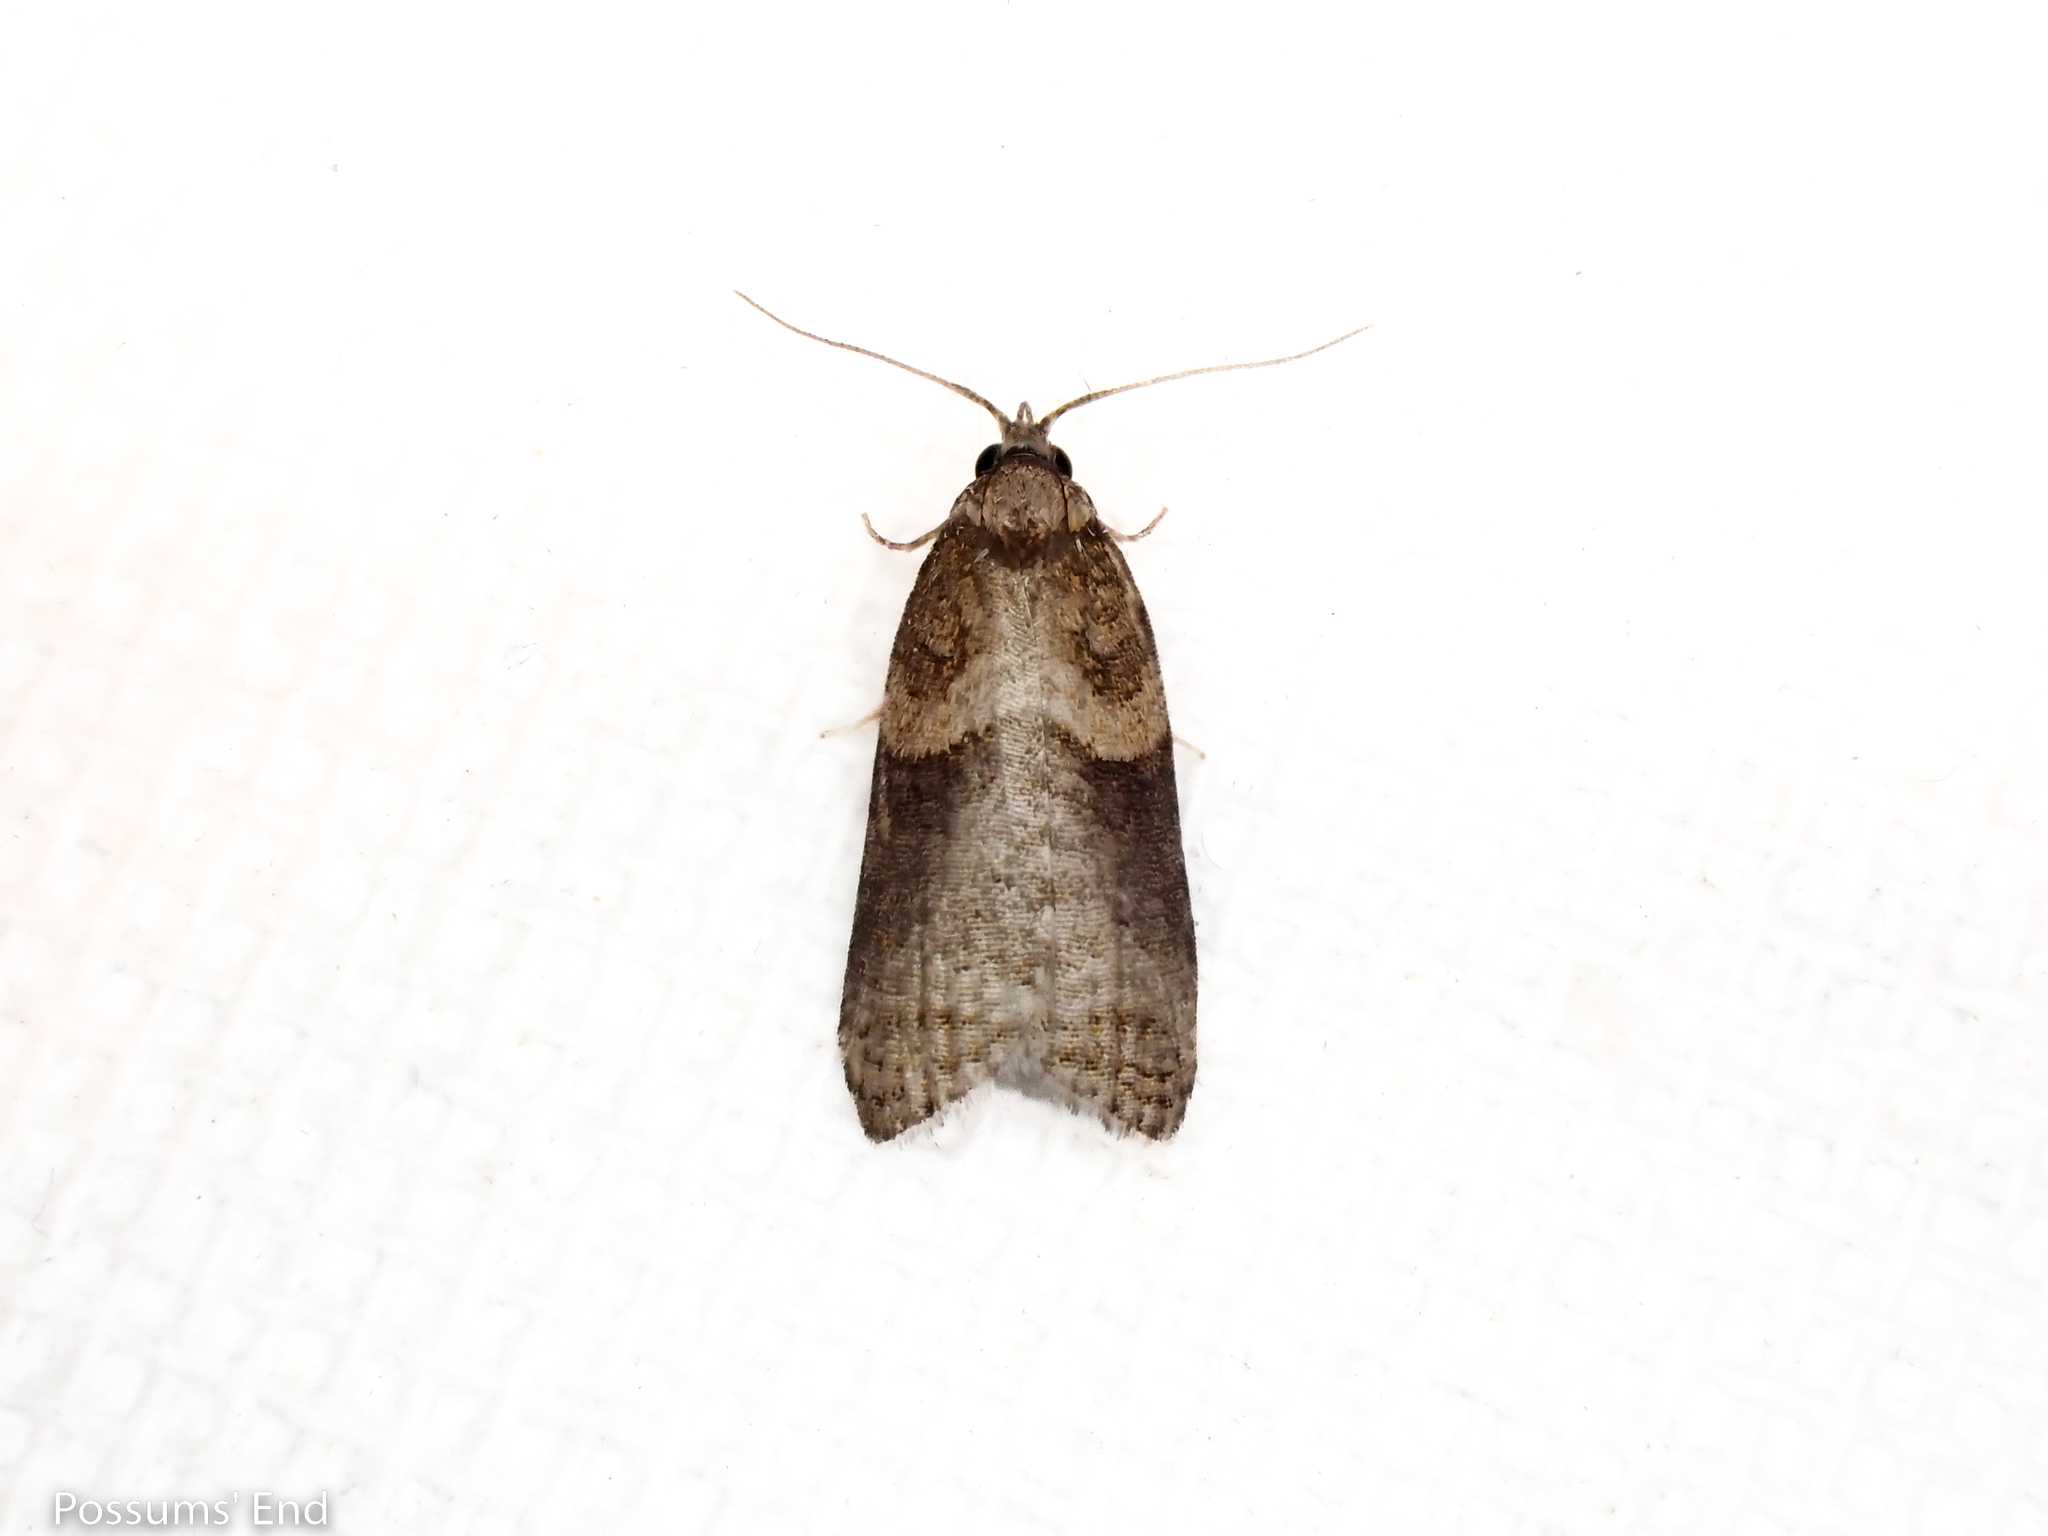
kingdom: Animalia
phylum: Arthropoda
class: Insecta
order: Lepidoptera
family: Tortricidae
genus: Maoritenes
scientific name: Maoritenes cyclobathra
